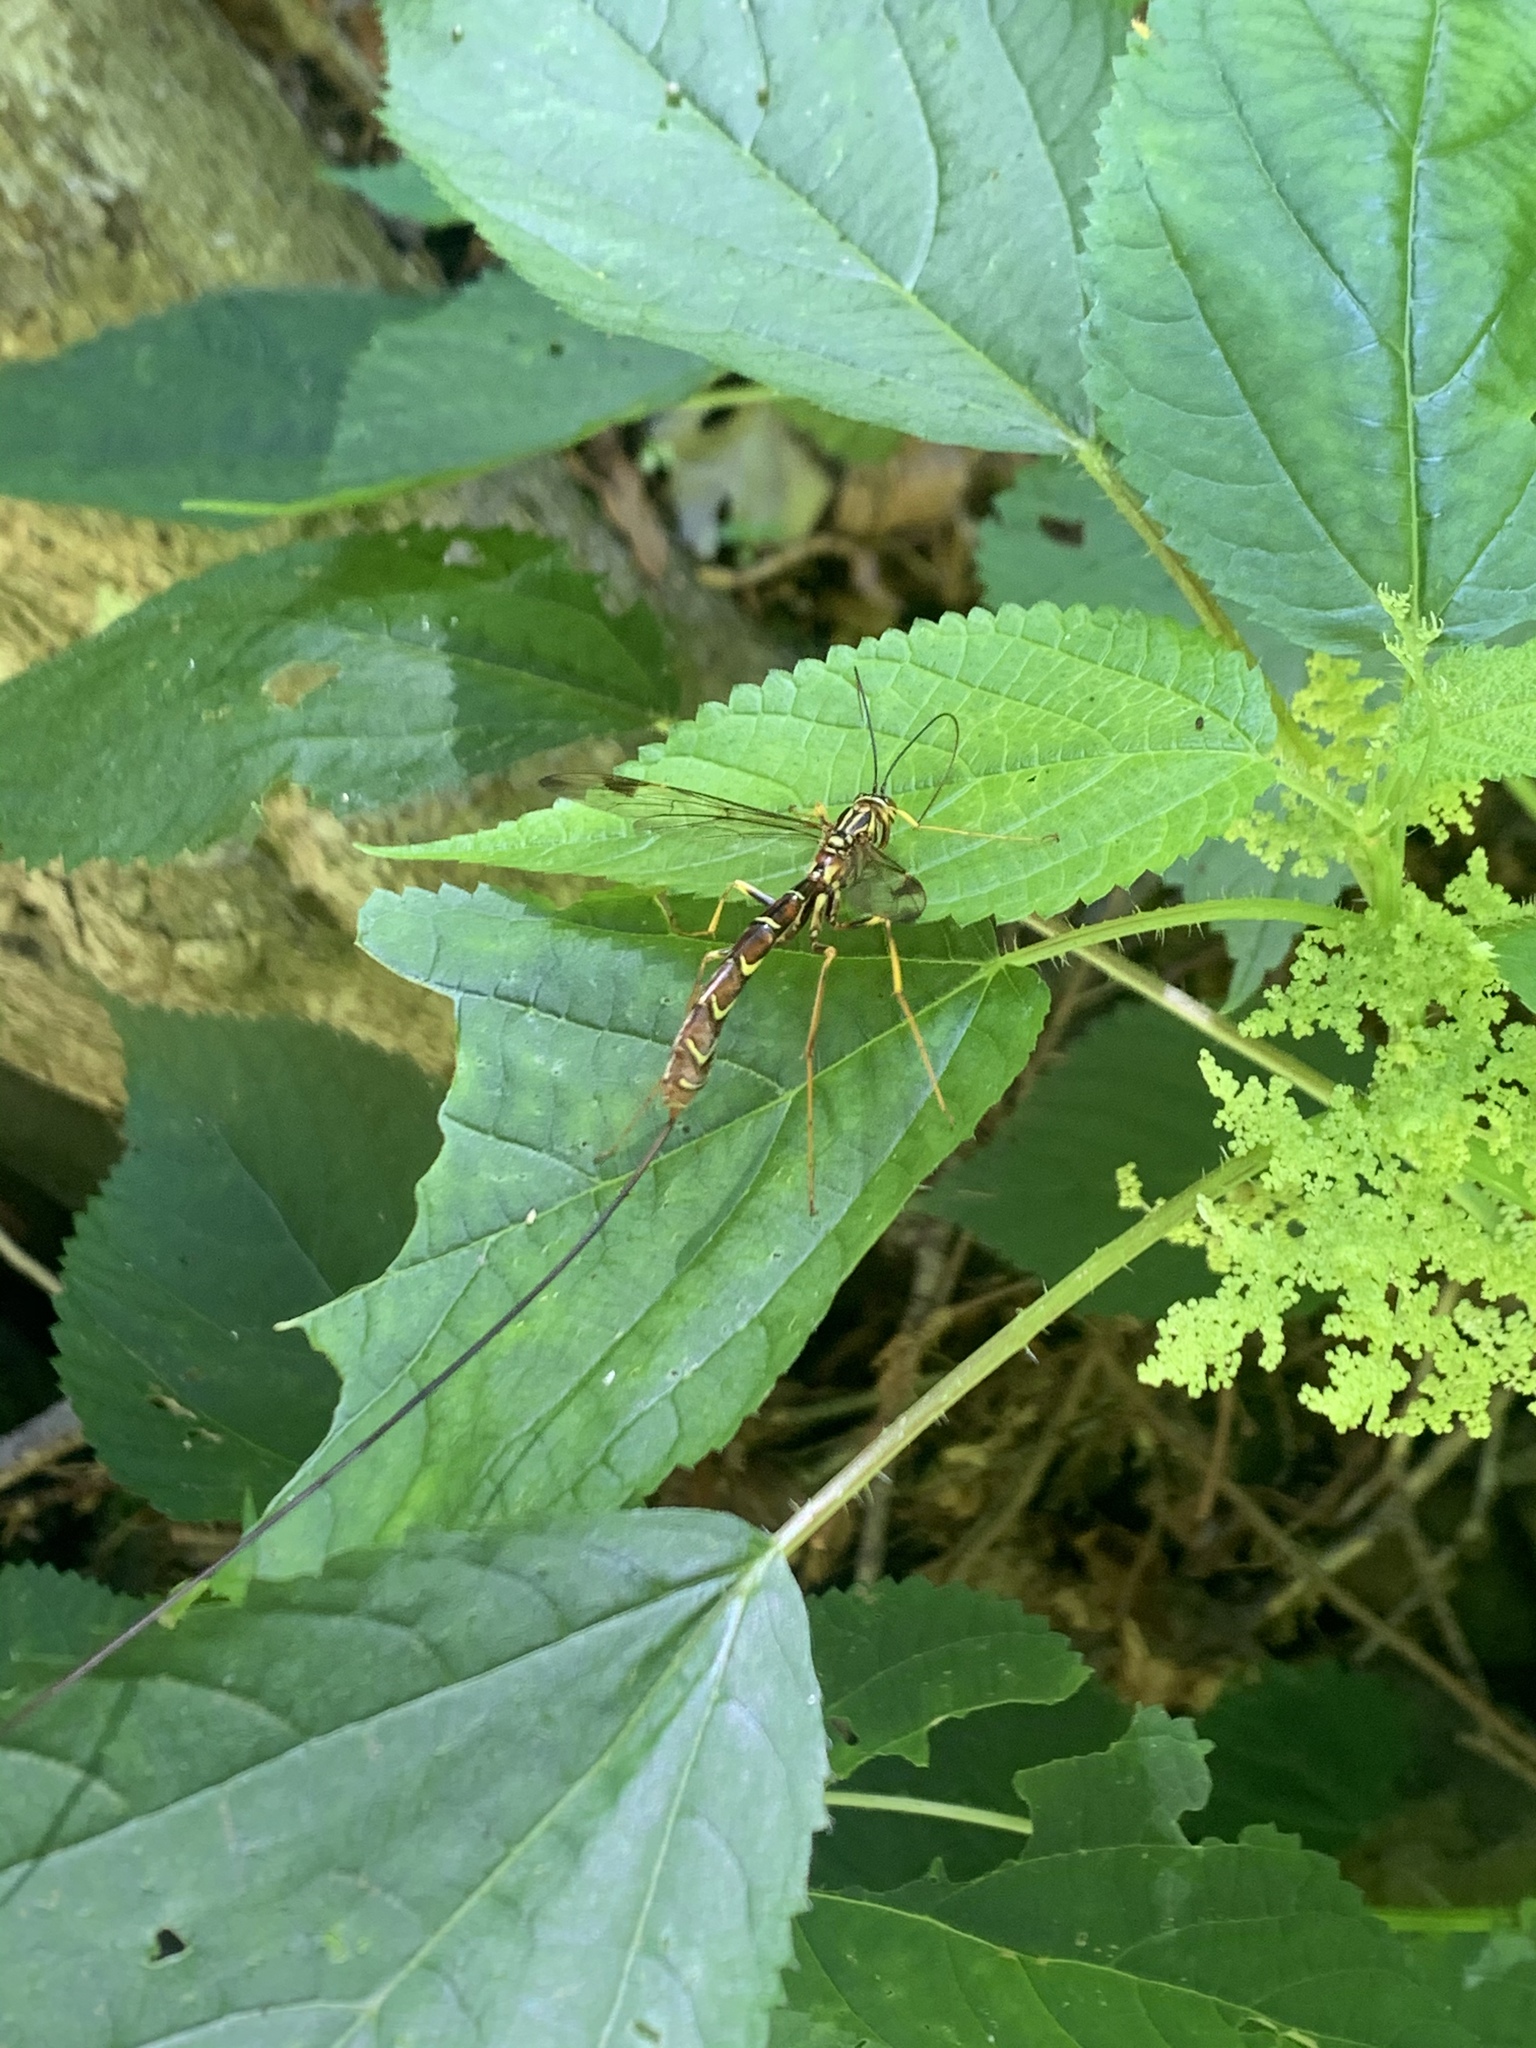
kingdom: Animalia
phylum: Arthropoda
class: Insecta
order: Hymenoptera
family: Ichneumonidae
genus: Megarhyssa
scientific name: Megarhyssa macrura
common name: Long-tailed giant ichneumonid wasp
